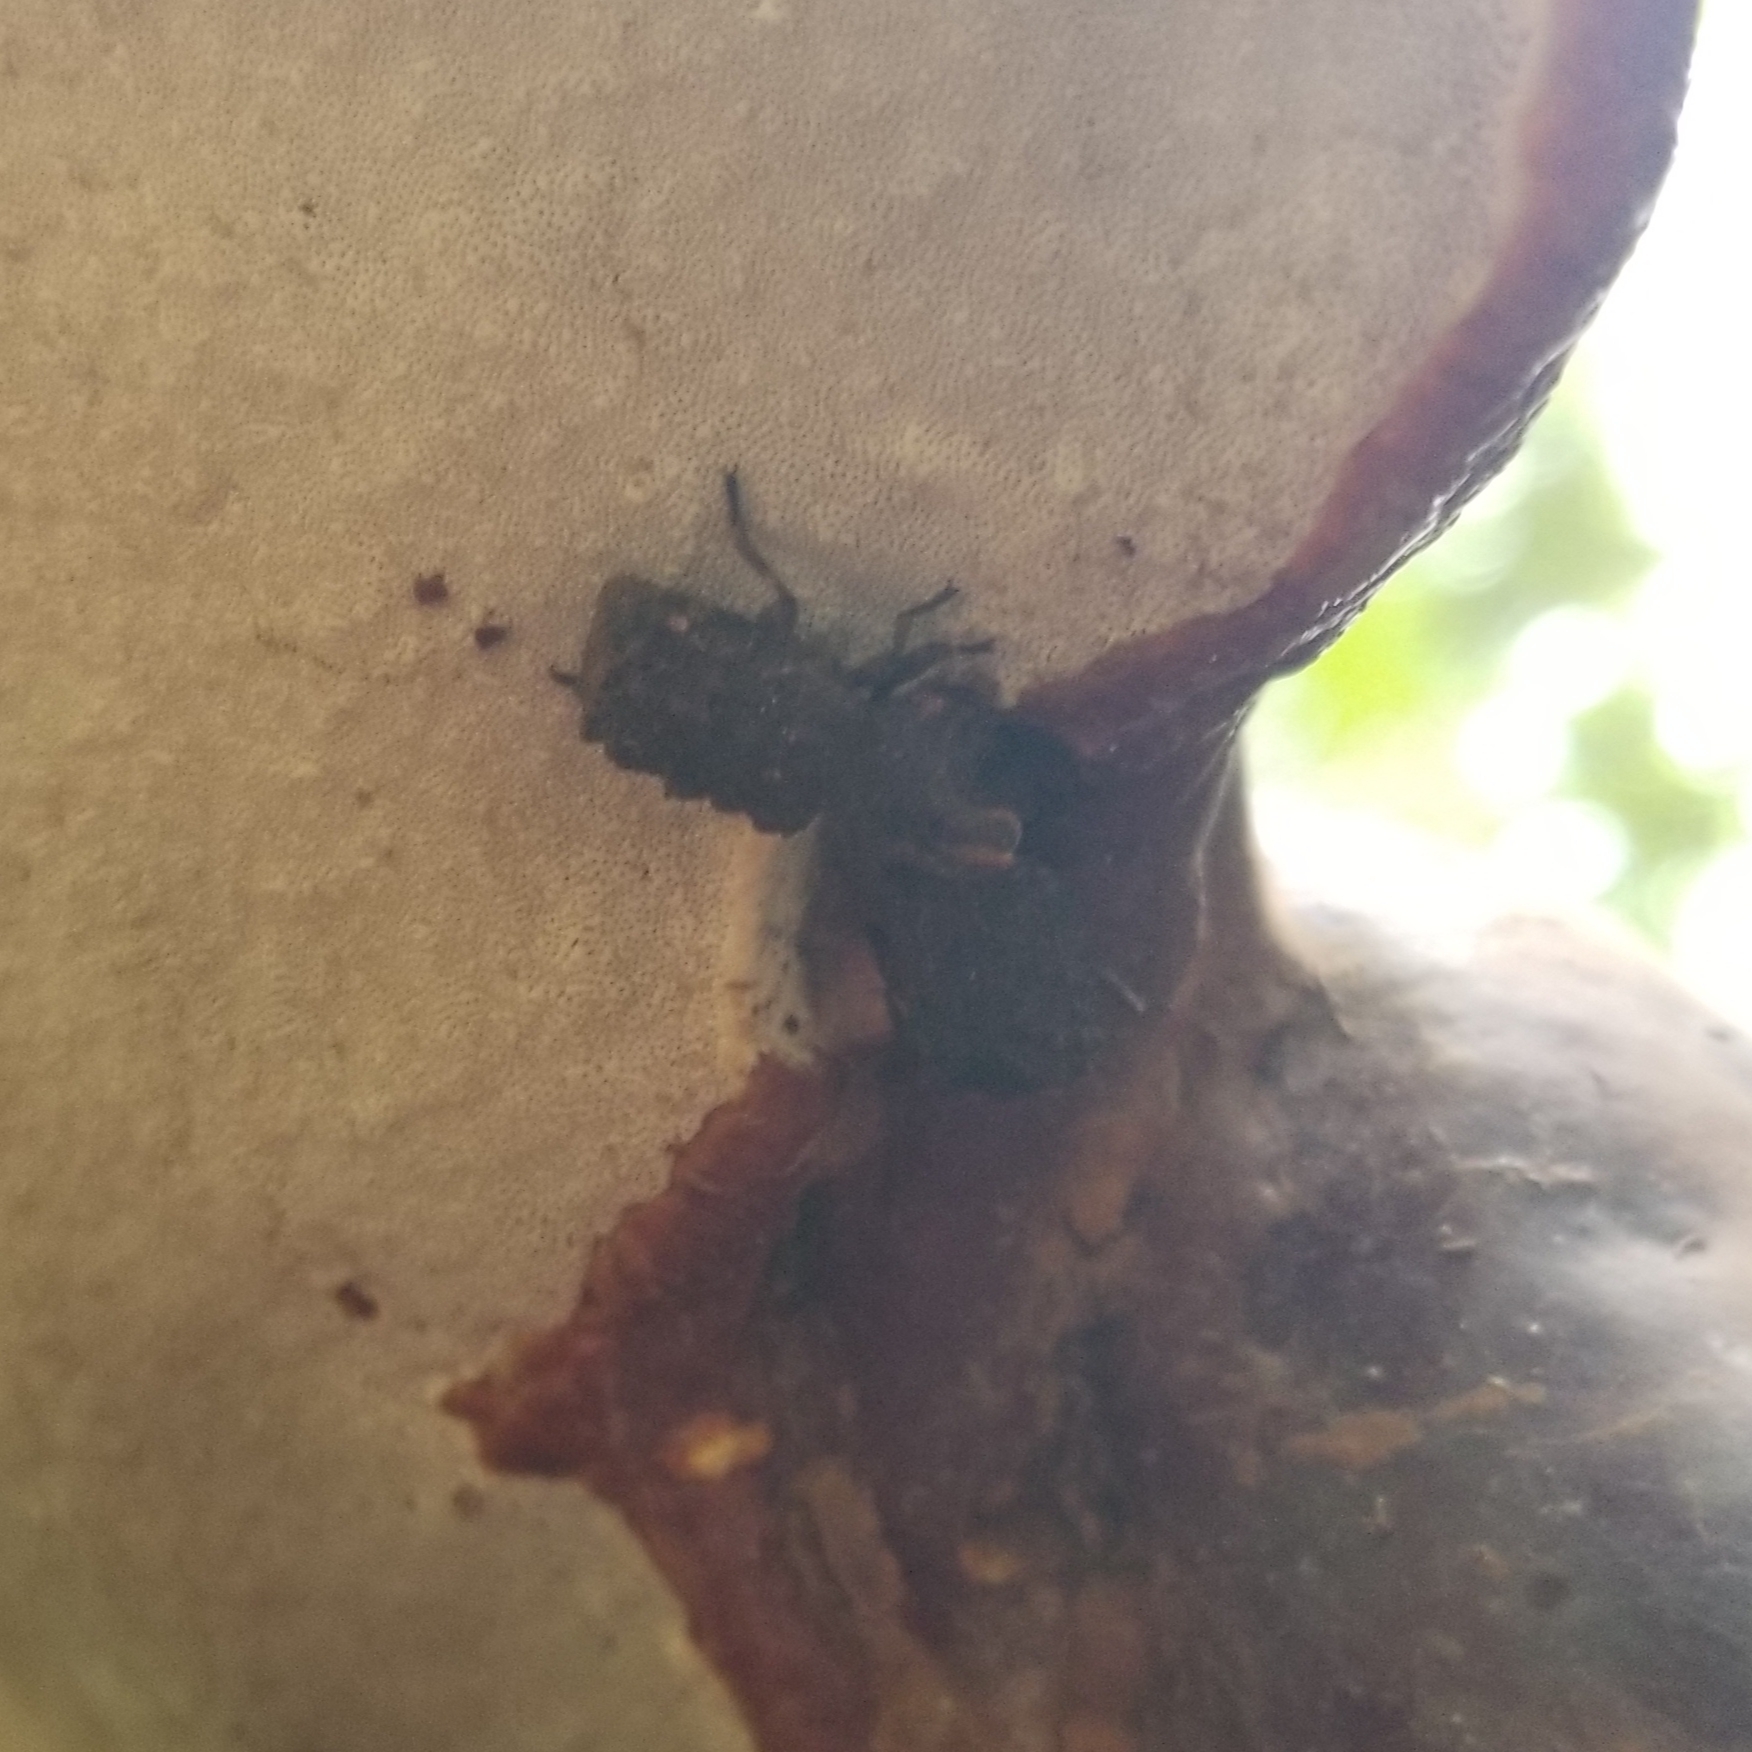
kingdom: Animalia
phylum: Arthropoda
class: Insecta
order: Coleoptera
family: Tenebrionidae
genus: Gnatocerus
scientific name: Gnatocerus cornutus
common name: Broad-horned flour beetle
